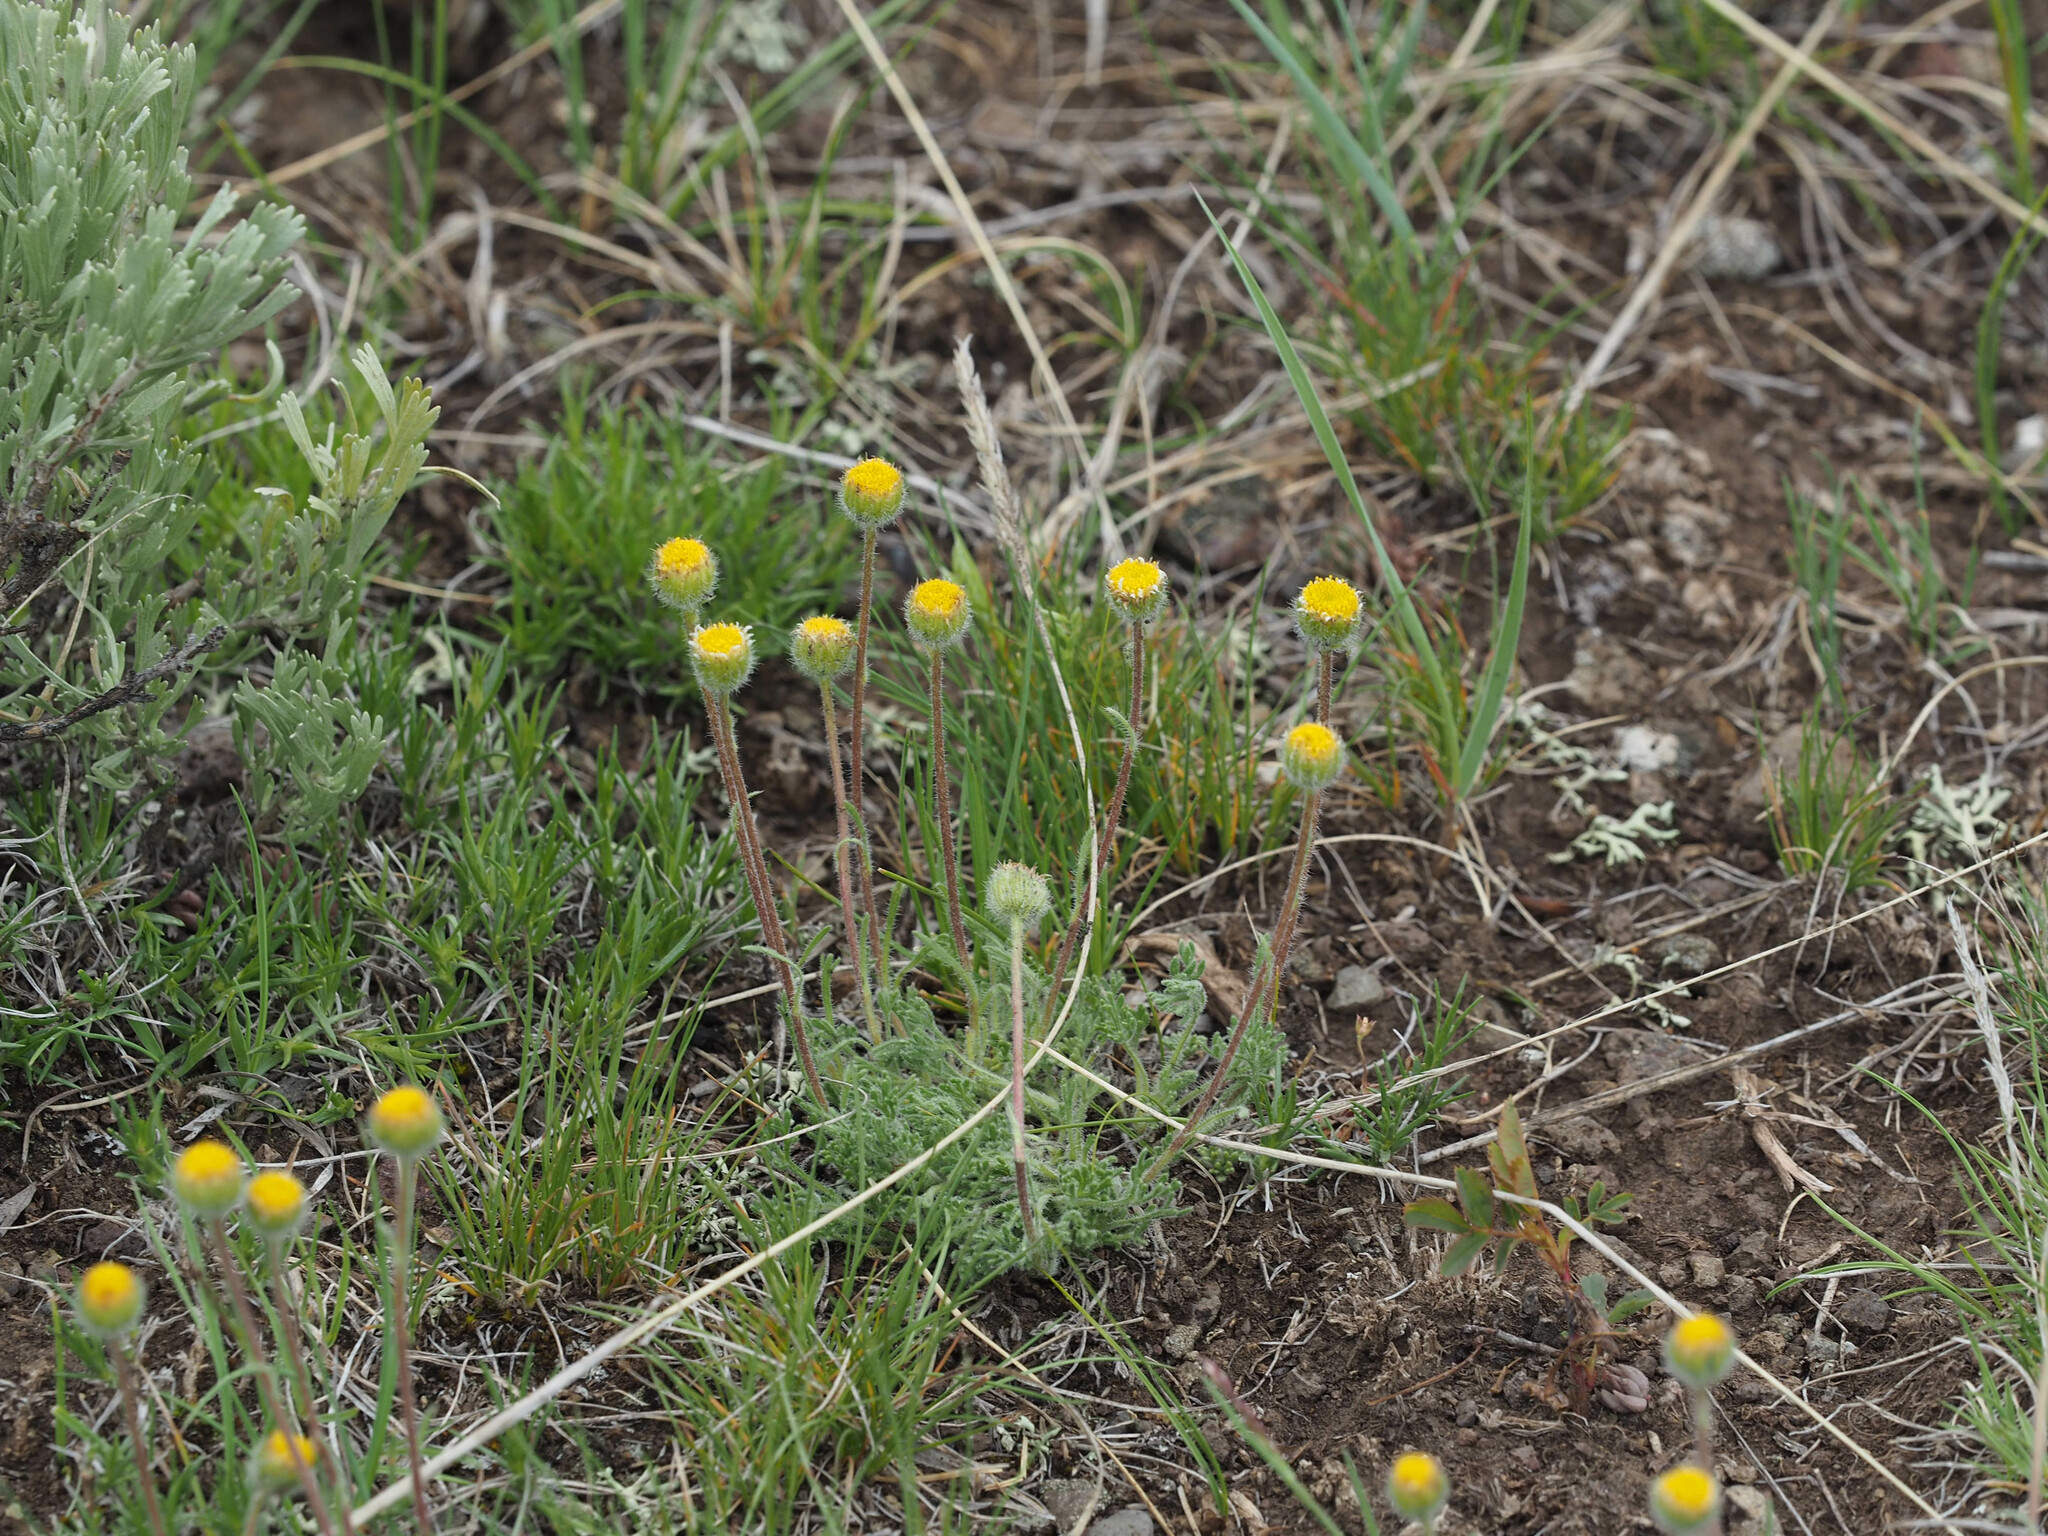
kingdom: Plantae
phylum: Tracheophyta
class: Magnoliopsida
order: Asterales
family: Asteraceae
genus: Erigeron
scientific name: Erigeron compositus
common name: Dwarf mountain fleabane
